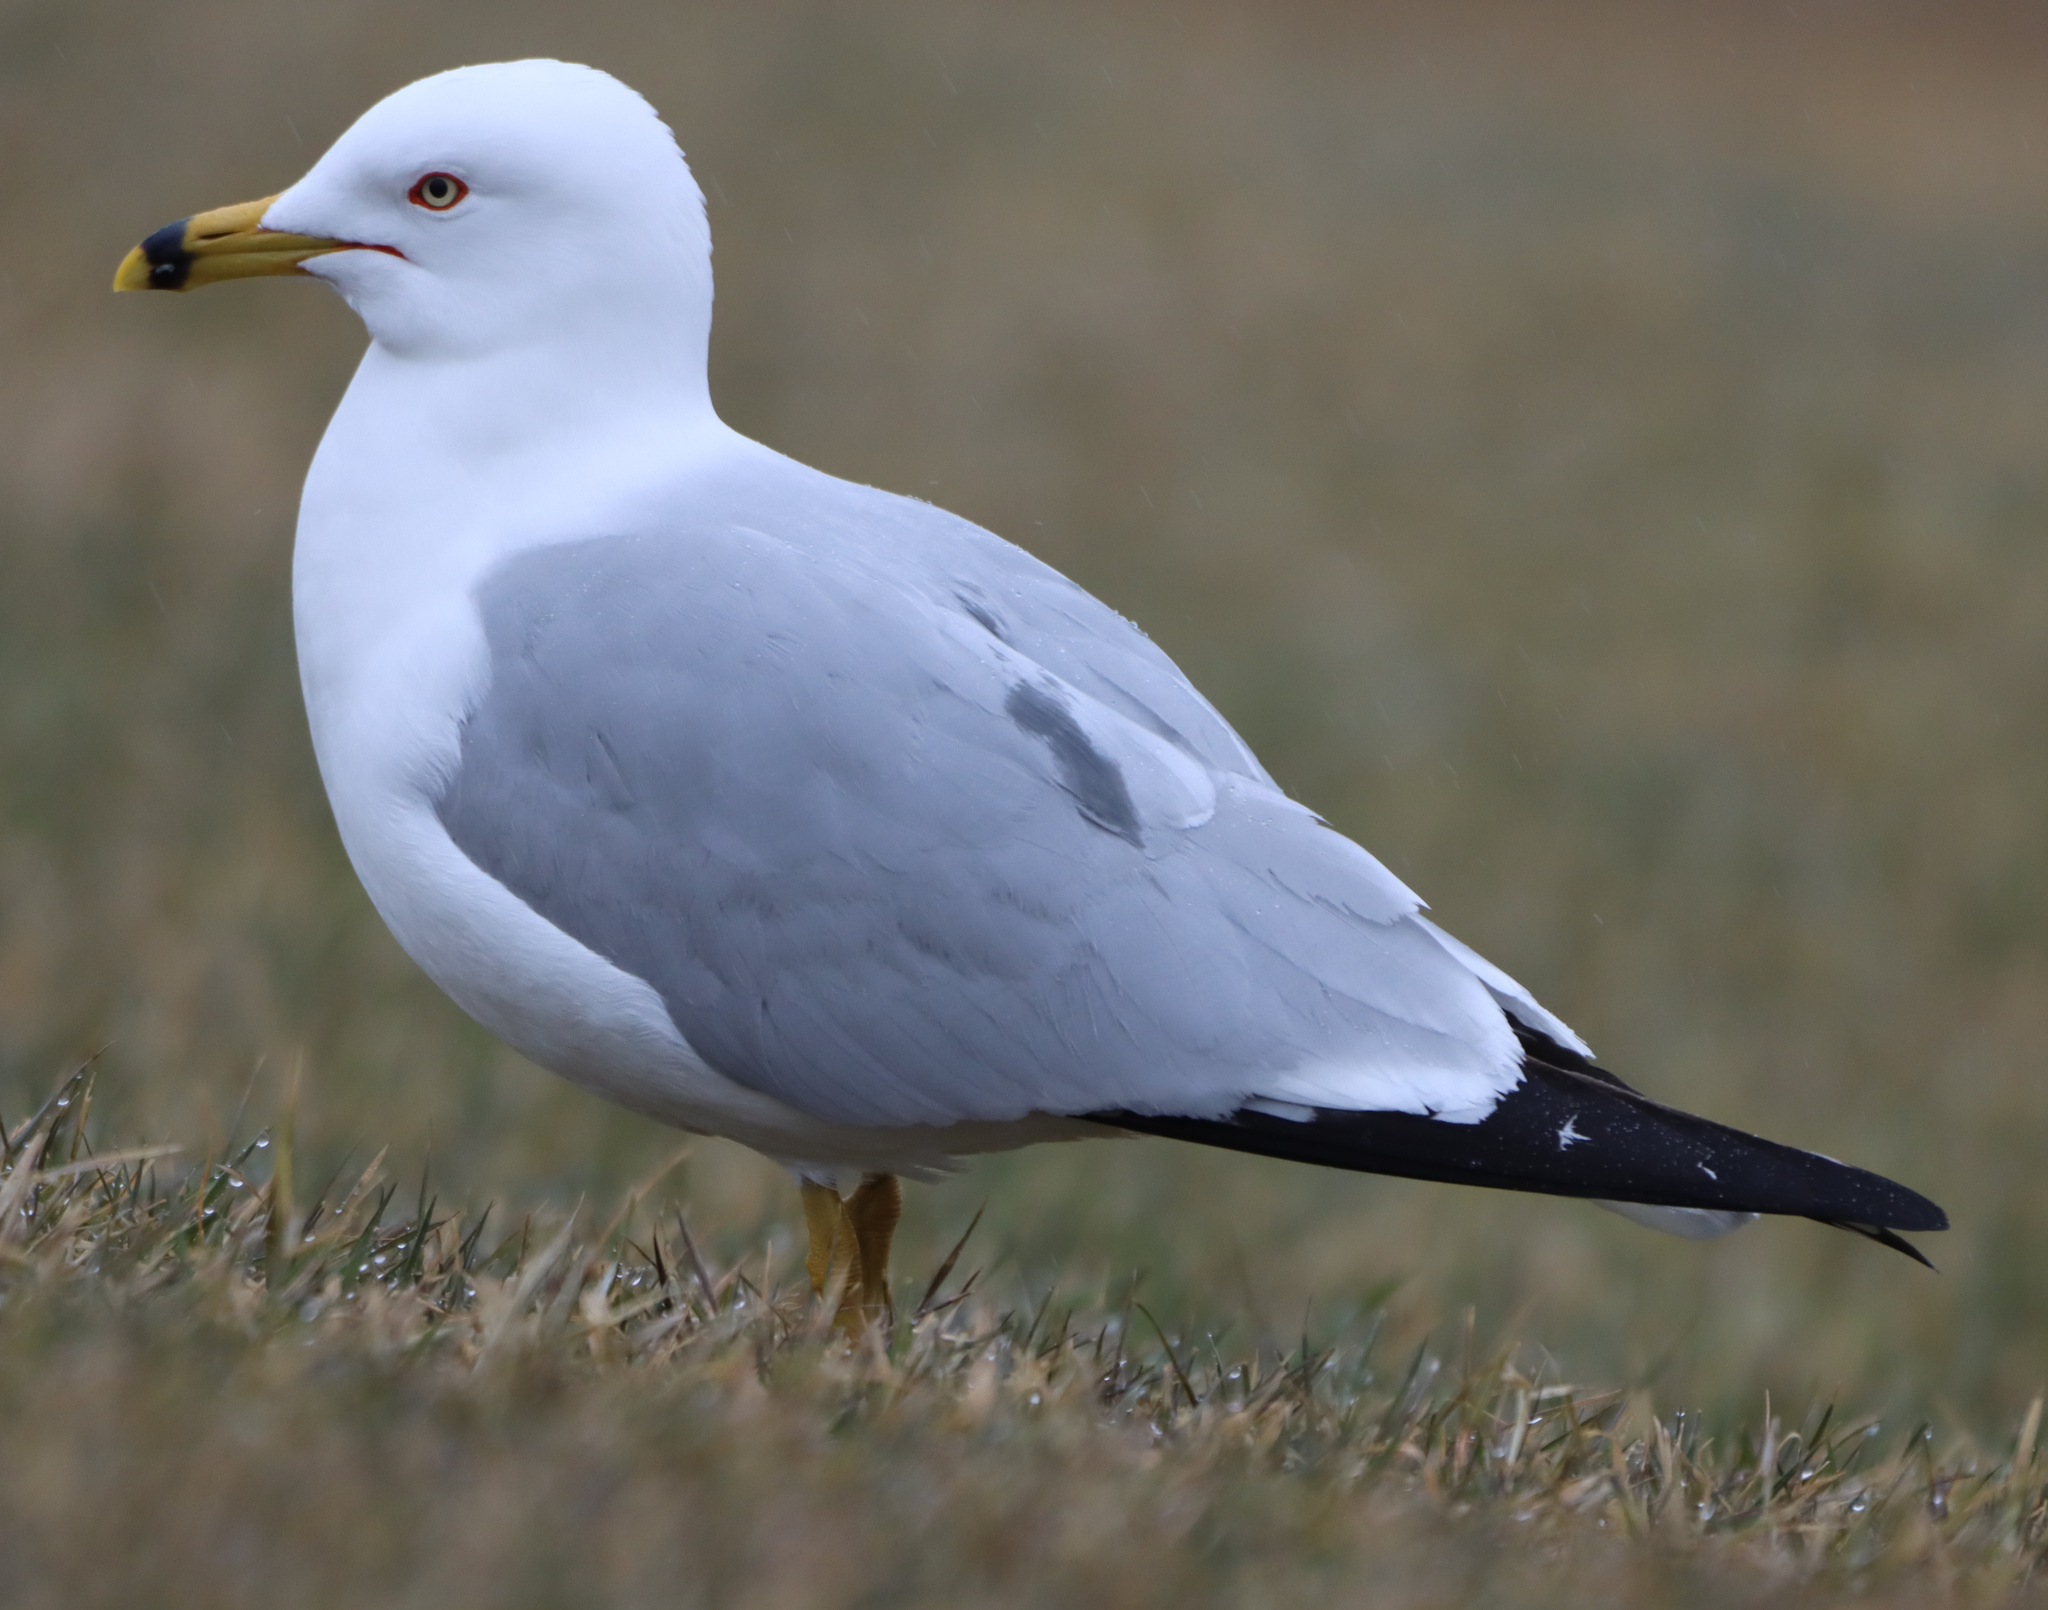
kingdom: Animalia
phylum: Chordata
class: Aves
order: Charadriiformes
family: Laridae
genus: Larus
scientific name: Larus delawarensis
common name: Ring-billed gull
